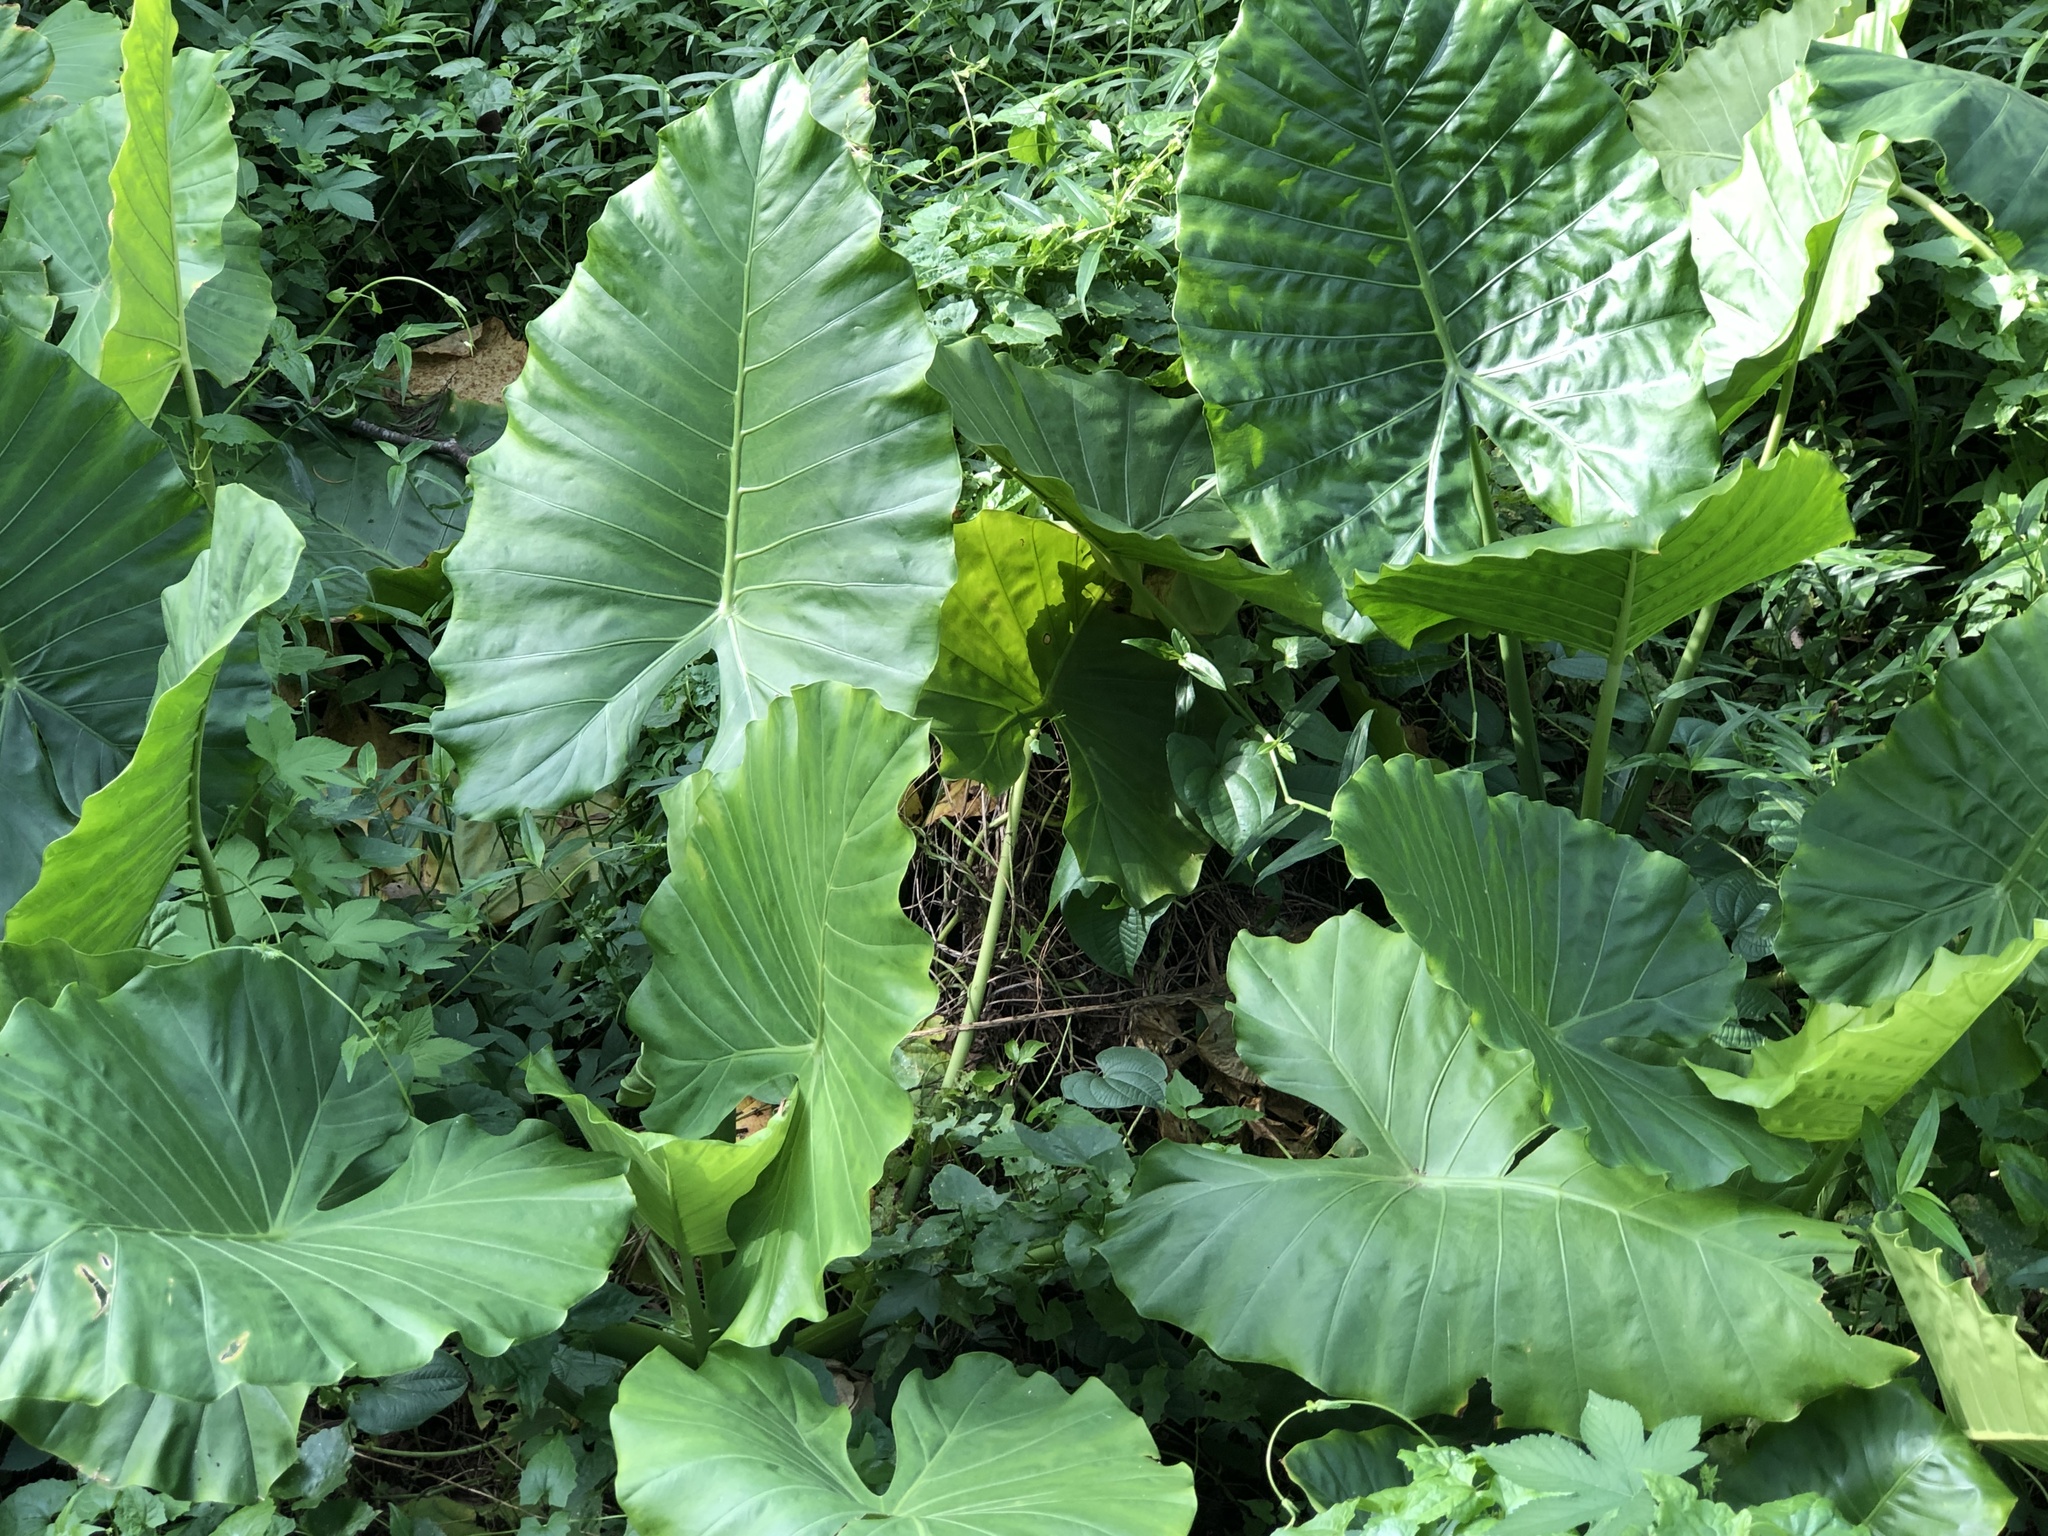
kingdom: Plantae
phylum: Tracheophyta
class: Liliopsida
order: Alismatales
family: Araceae
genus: Alocasia
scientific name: Alocasia odora
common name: Asian taro
